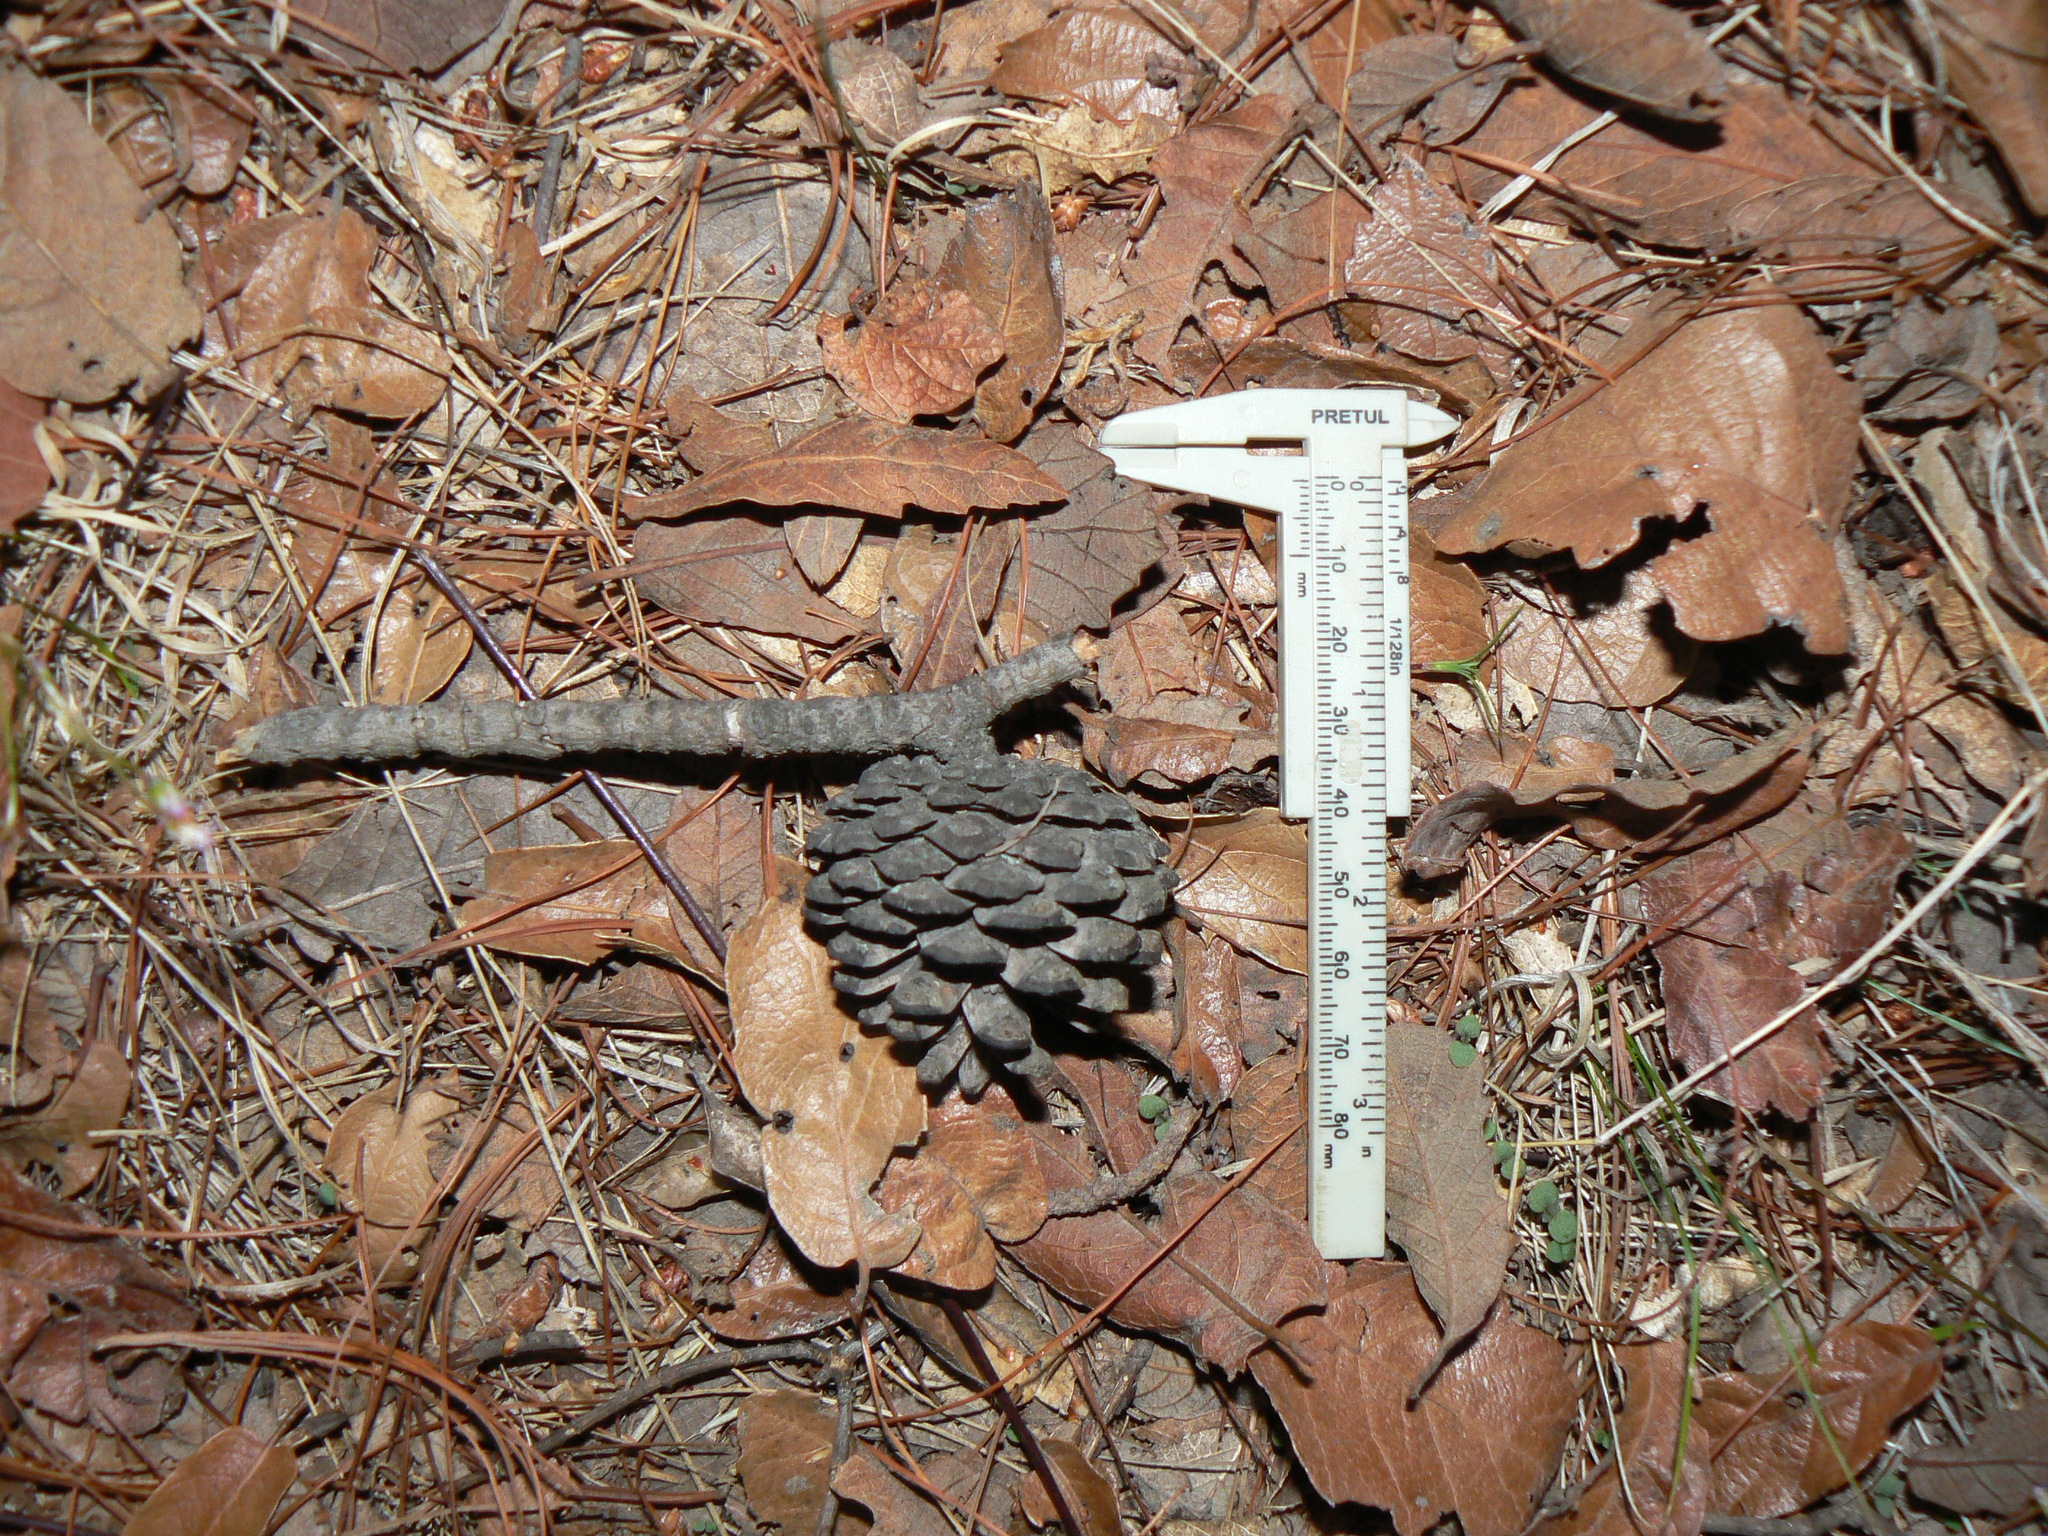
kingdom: Plantae
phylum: Tracheophyta
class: Pinopsida
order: Pinales
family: Pinaceae
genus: Pinus
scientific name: Pinus oocarpa
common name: Egg-cone pine
